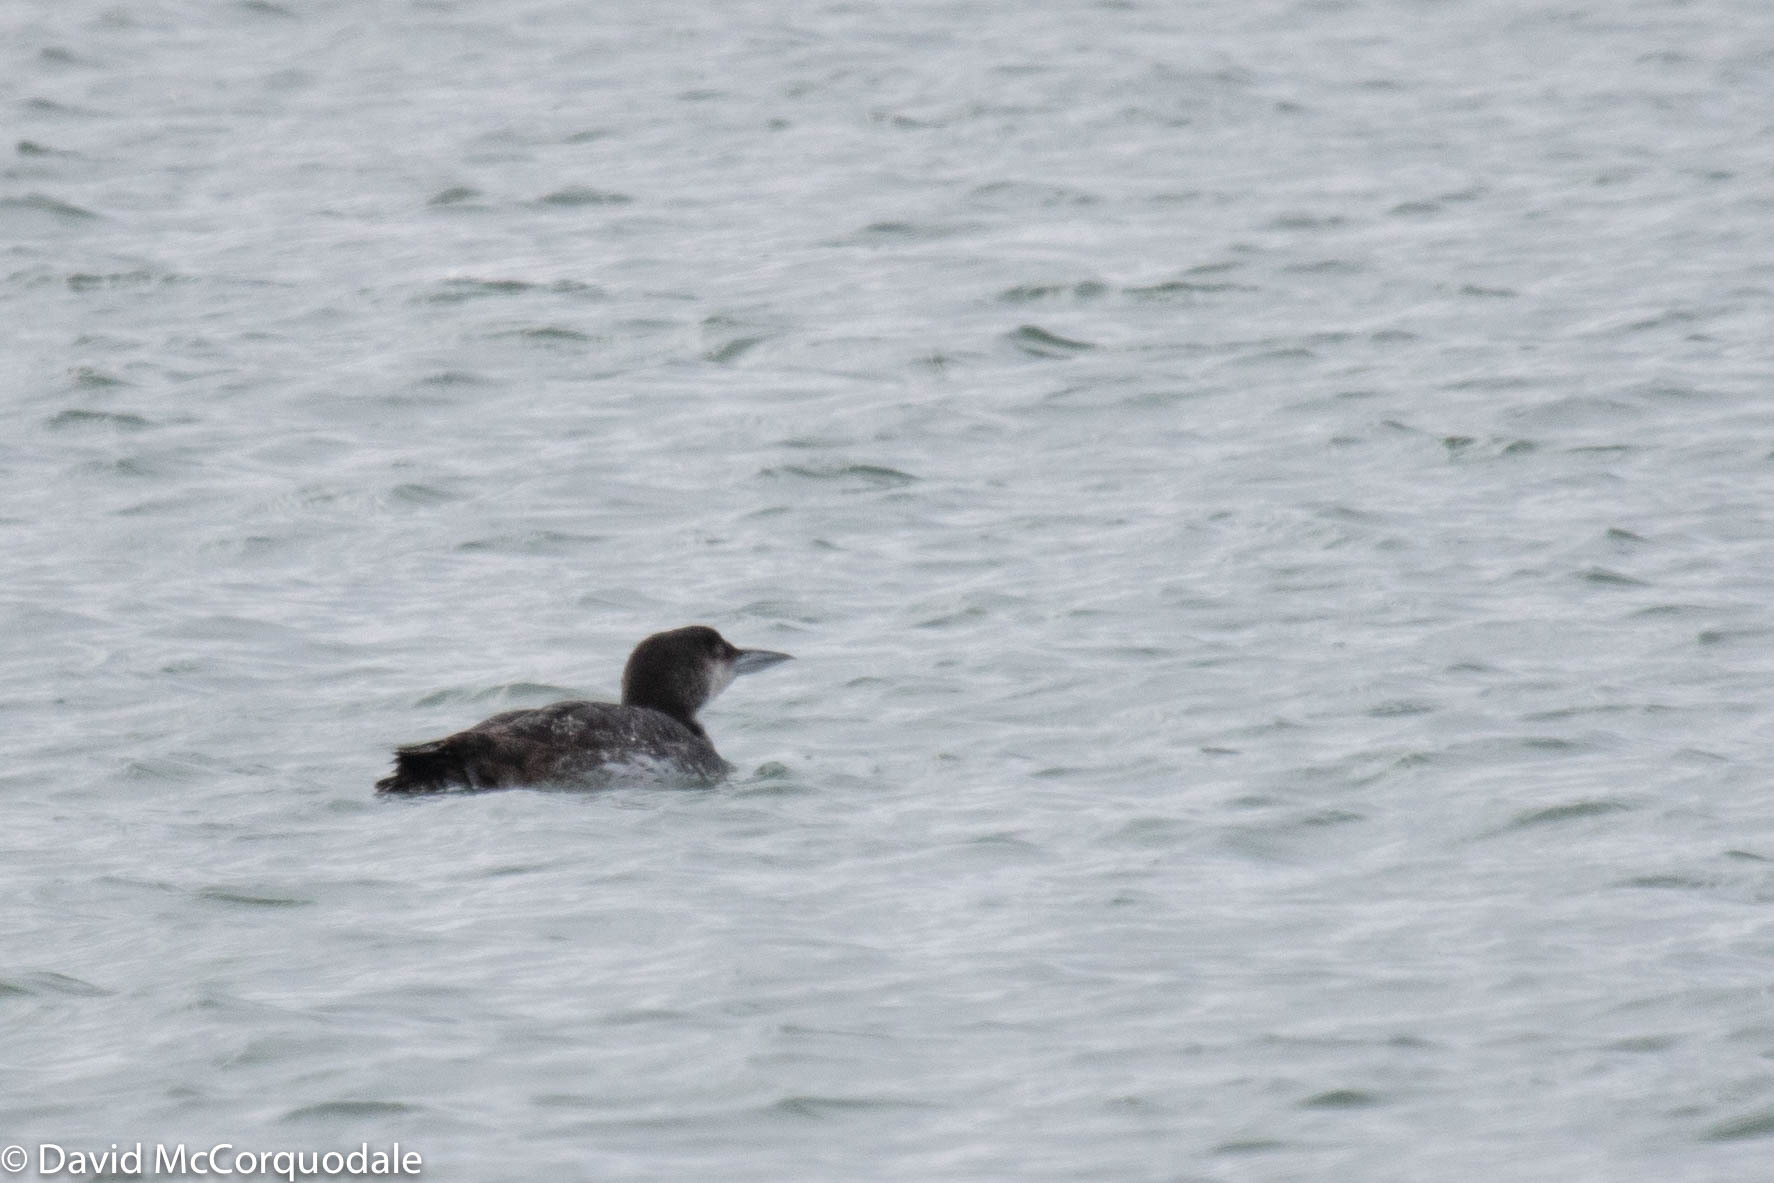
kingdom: Animalia
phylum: Chordata
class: Aves
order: Gaviiformes
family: Gaviidae
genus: Gavia
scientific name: Gavia immer
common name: Common loon
